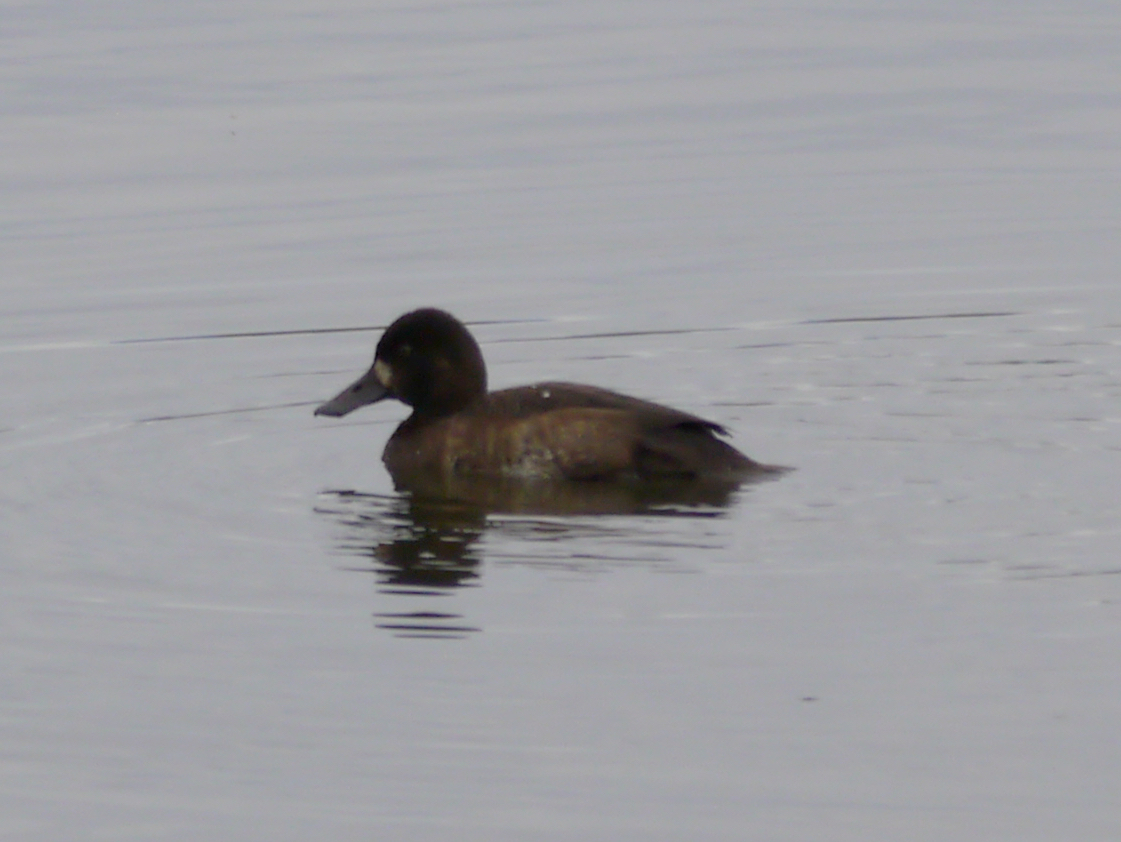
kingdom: Animalia
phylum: Chordata
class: Aves
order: Anseriformes
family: Anatidae
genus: Aythya
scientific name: Aythya marila
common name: Greater scaup
